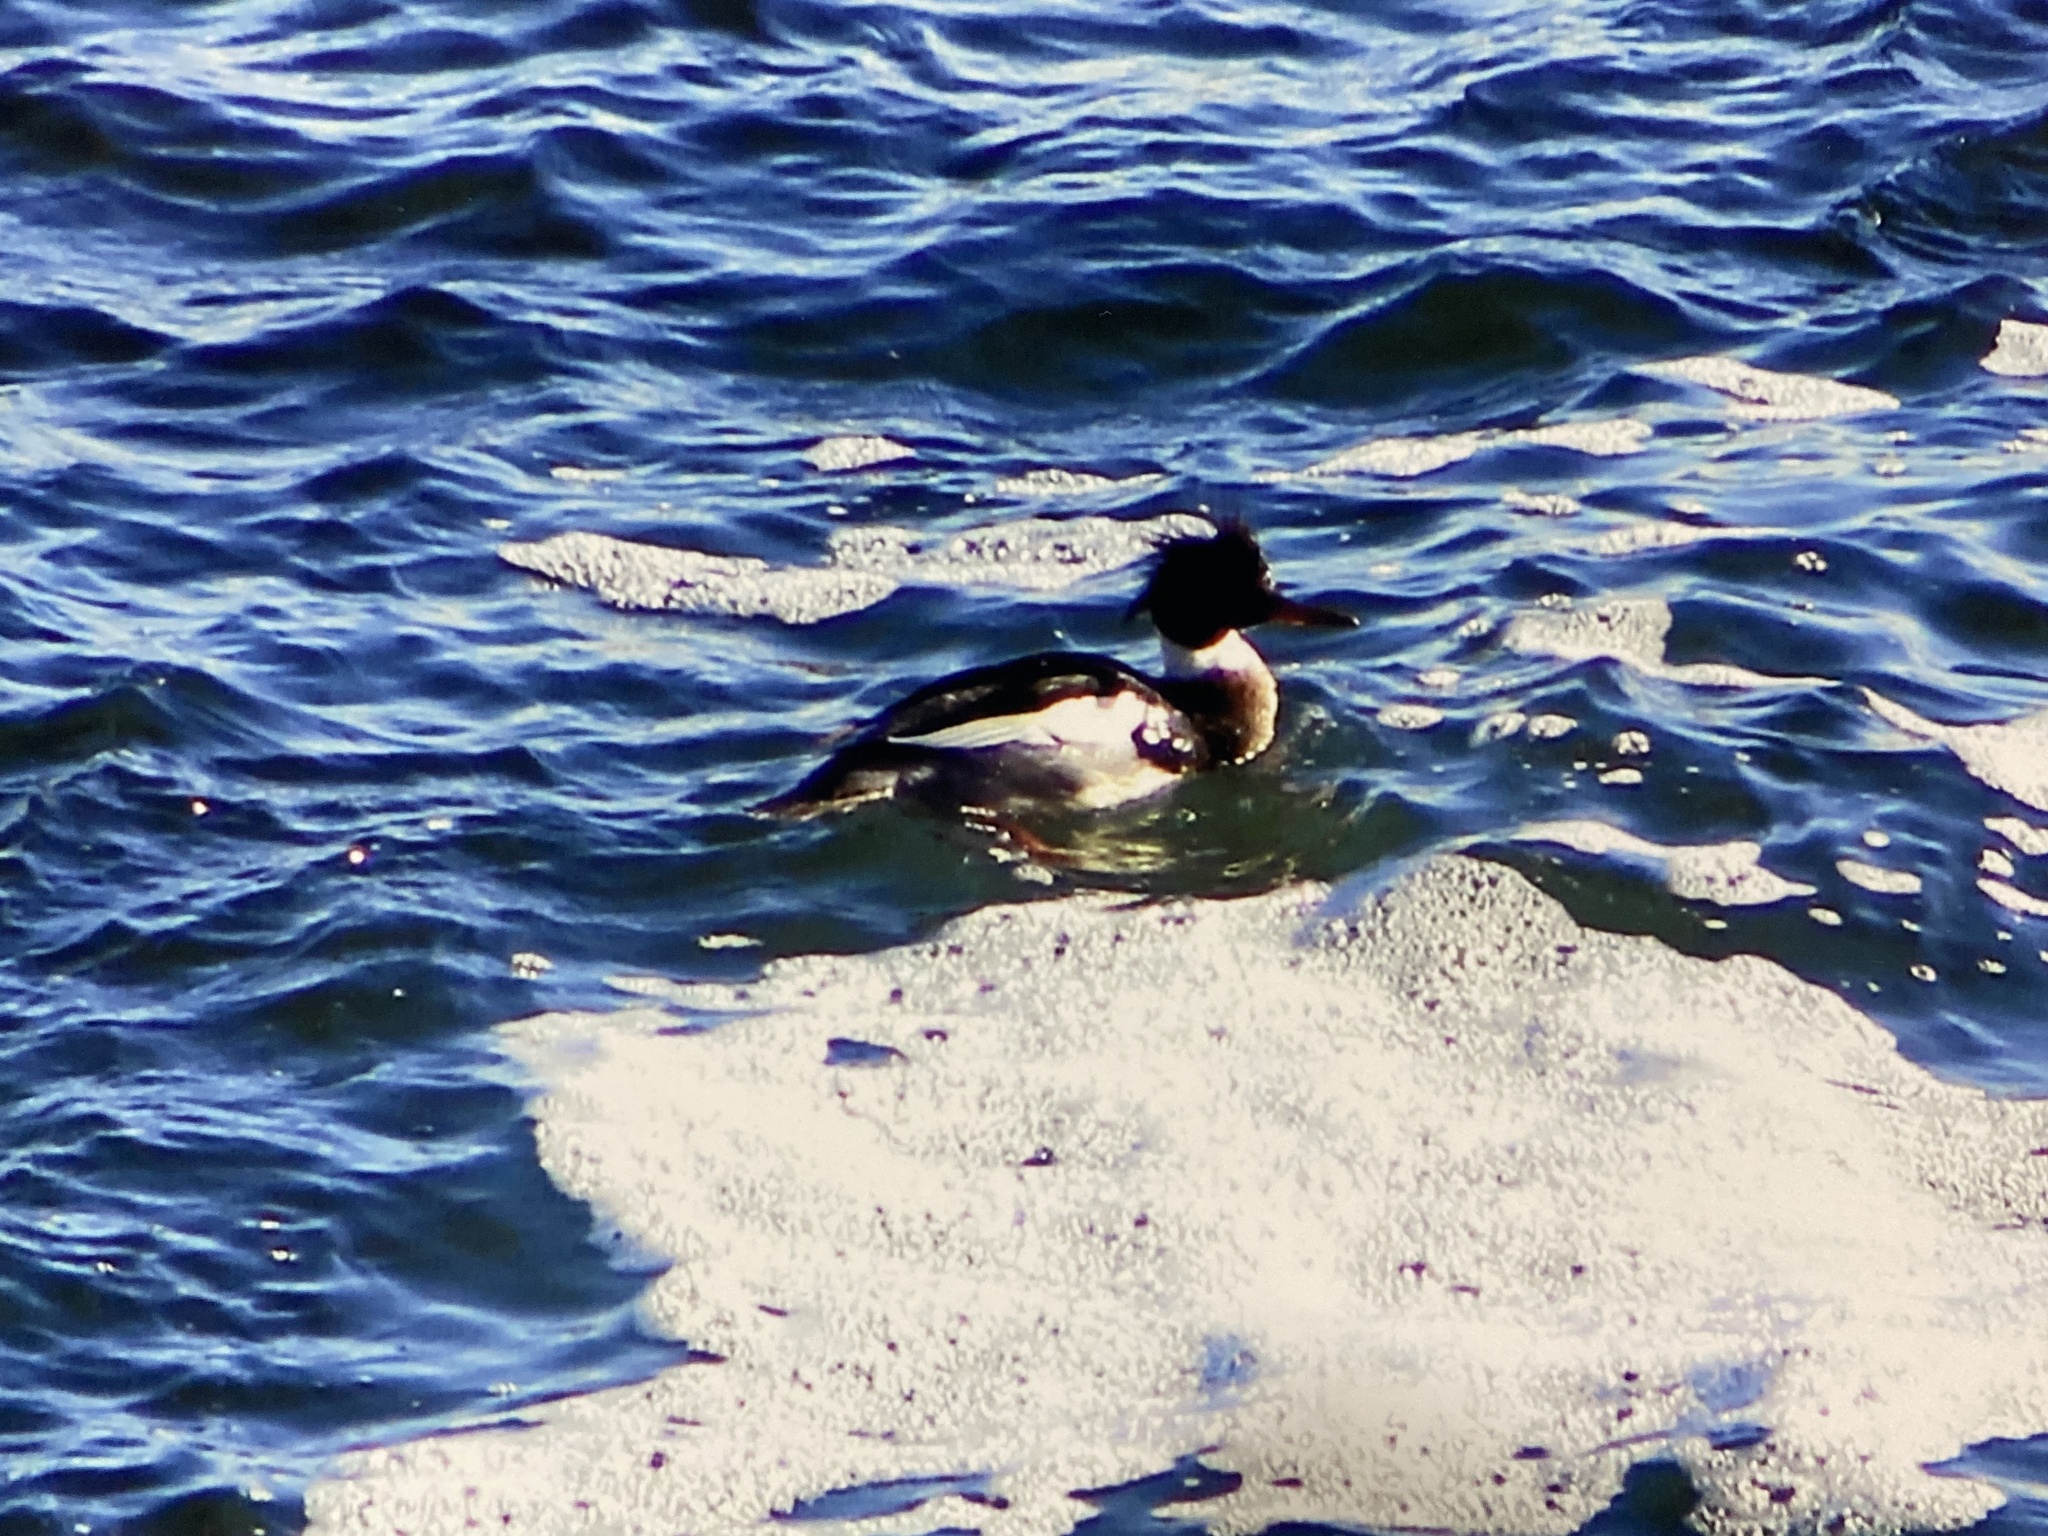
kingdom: Animalia
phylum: Chordata
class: Aves
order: Anseriformes
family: Anatidae
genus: Mergus
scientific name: Mergus serrator
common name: Red-breasted merganser
